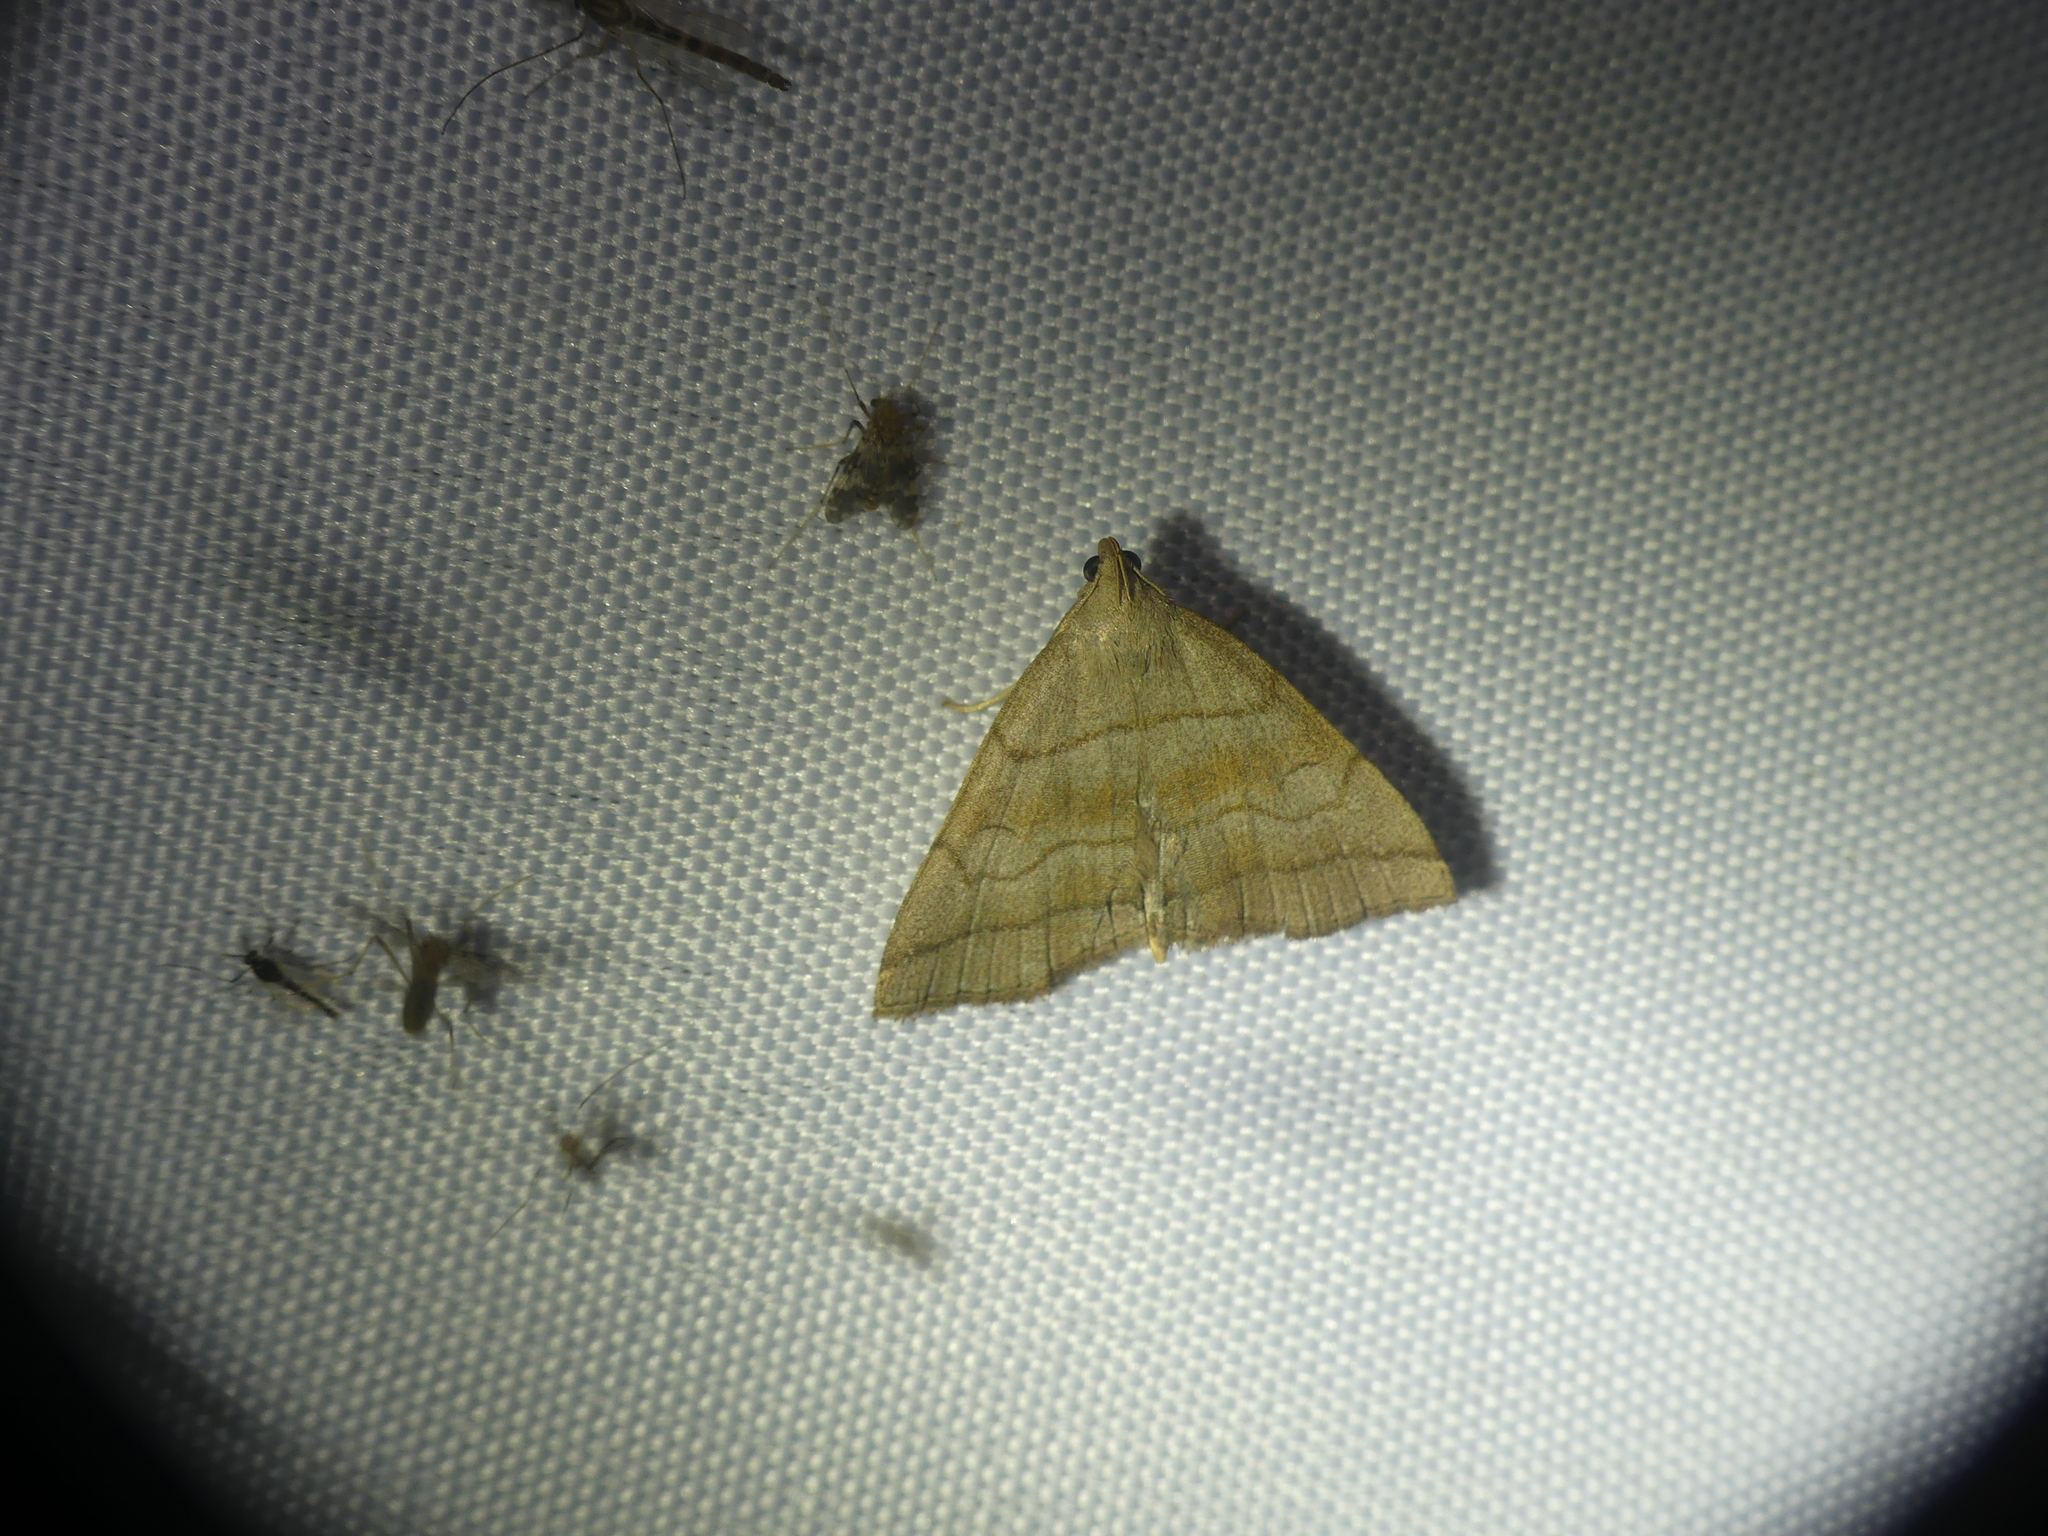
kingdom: Animalia
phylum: Arthropoda
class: Insecta
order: Lepidoptera
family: Erebidae
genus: Herminia
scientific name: Herminia tarsicrinalis
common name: Shaded fan-foot
